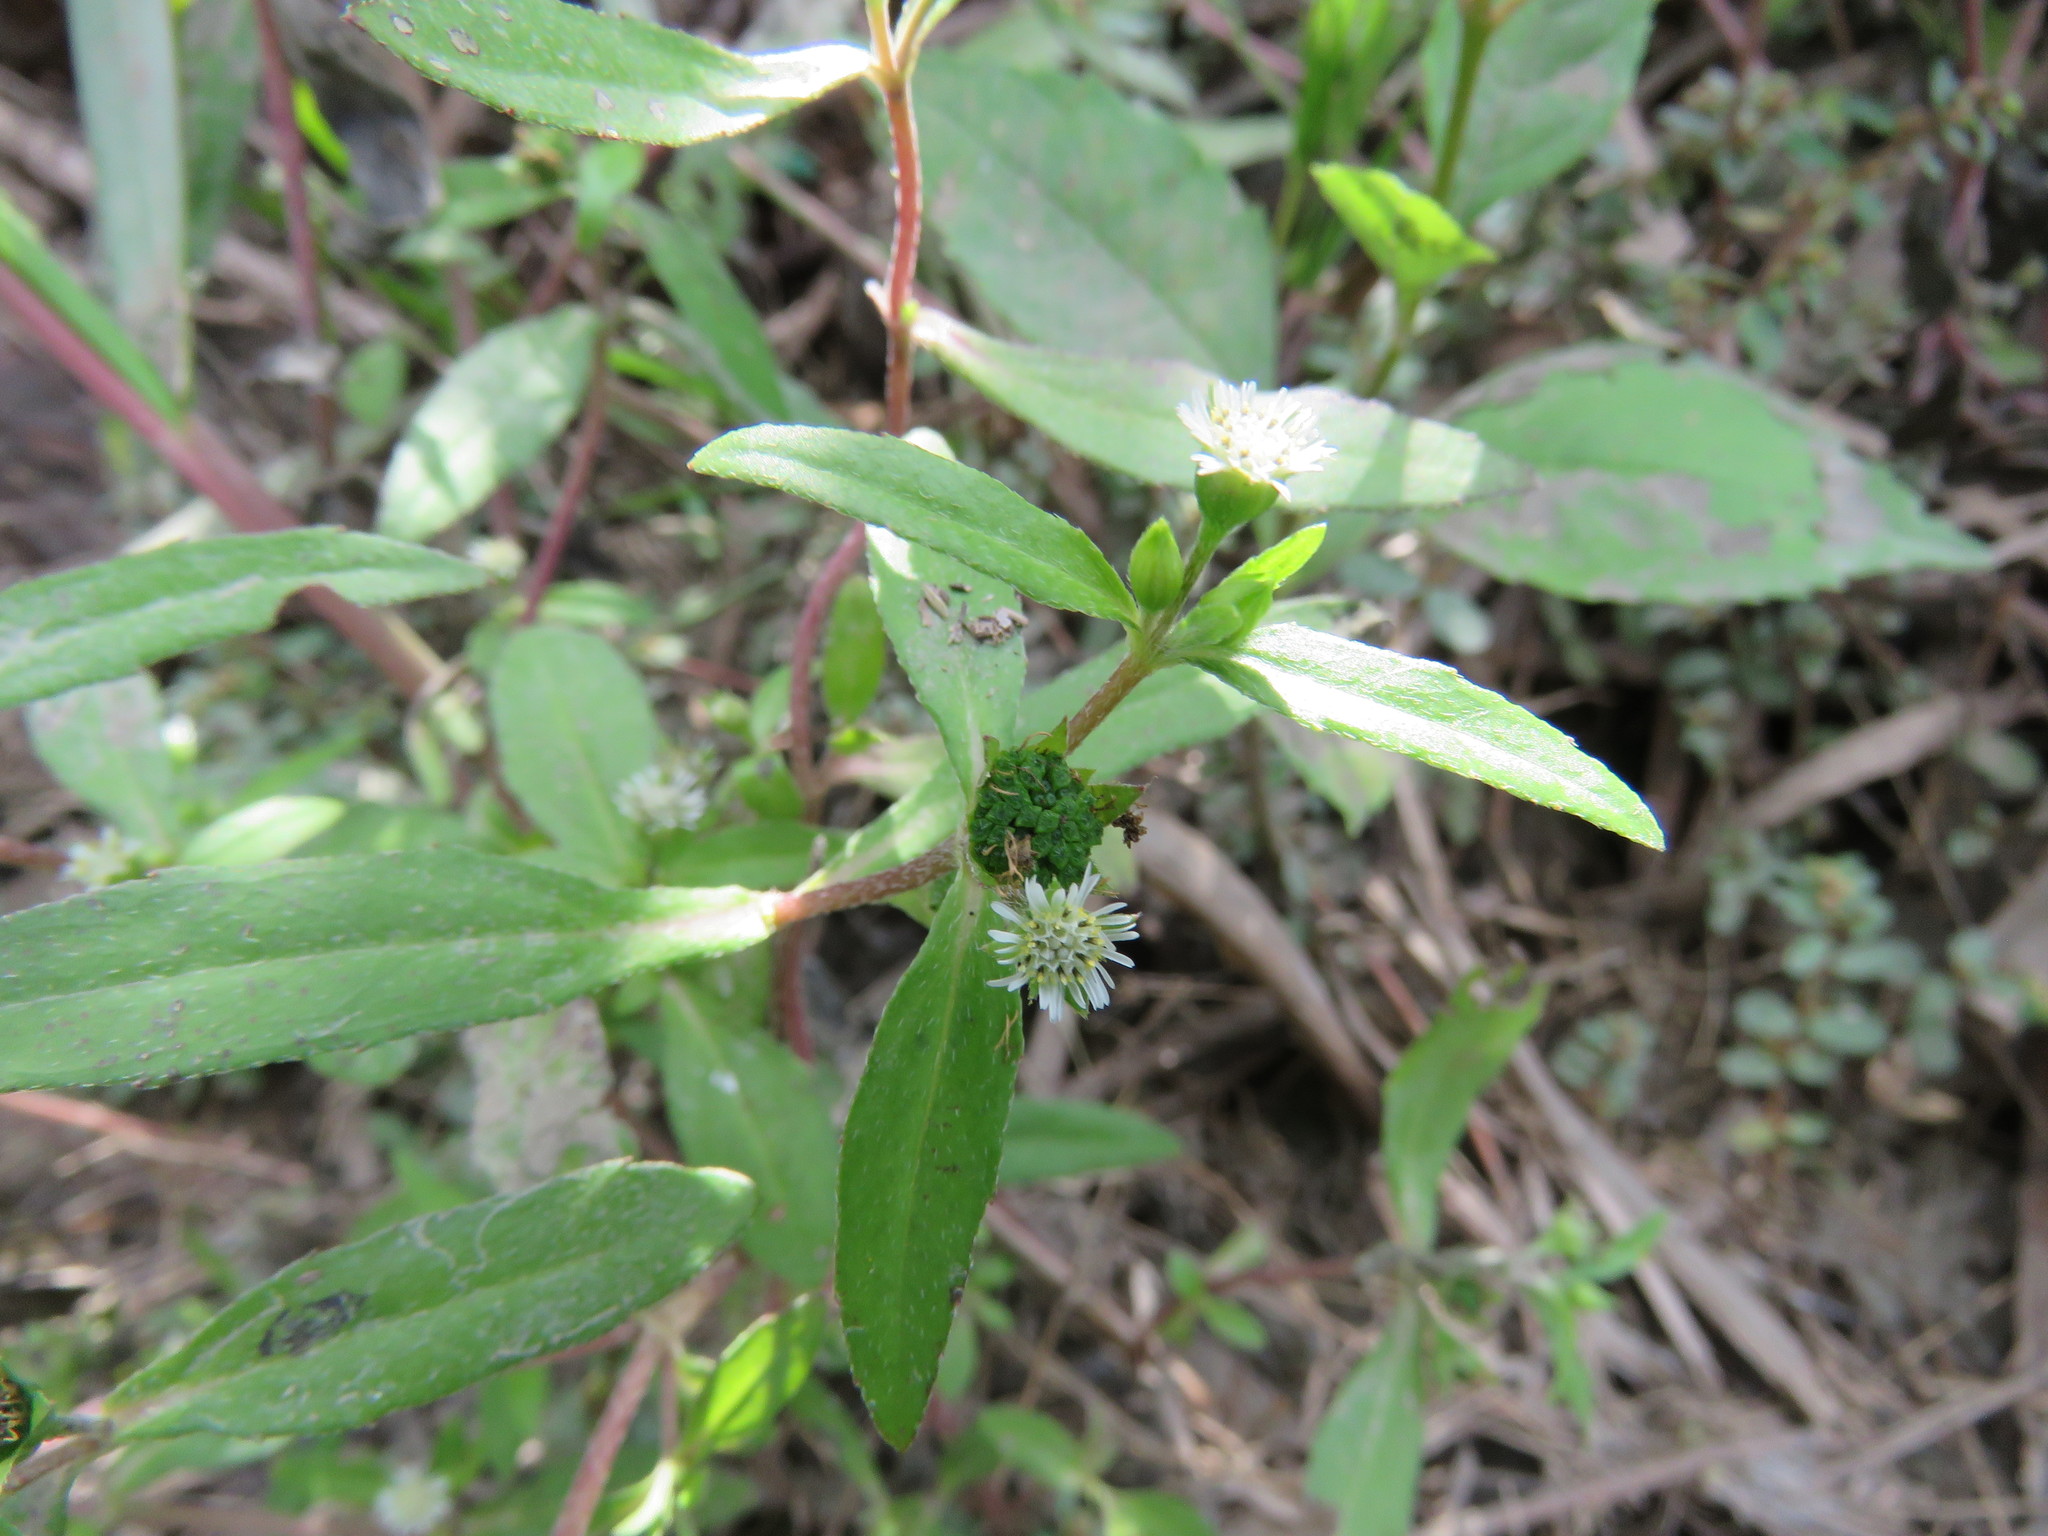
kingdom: Plantae
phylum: Tracheophyta
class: Magnoliopsida
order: Asterales
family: Asteraceae
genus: Eclipta
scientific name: Eclipta prostrata
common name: False daisy
